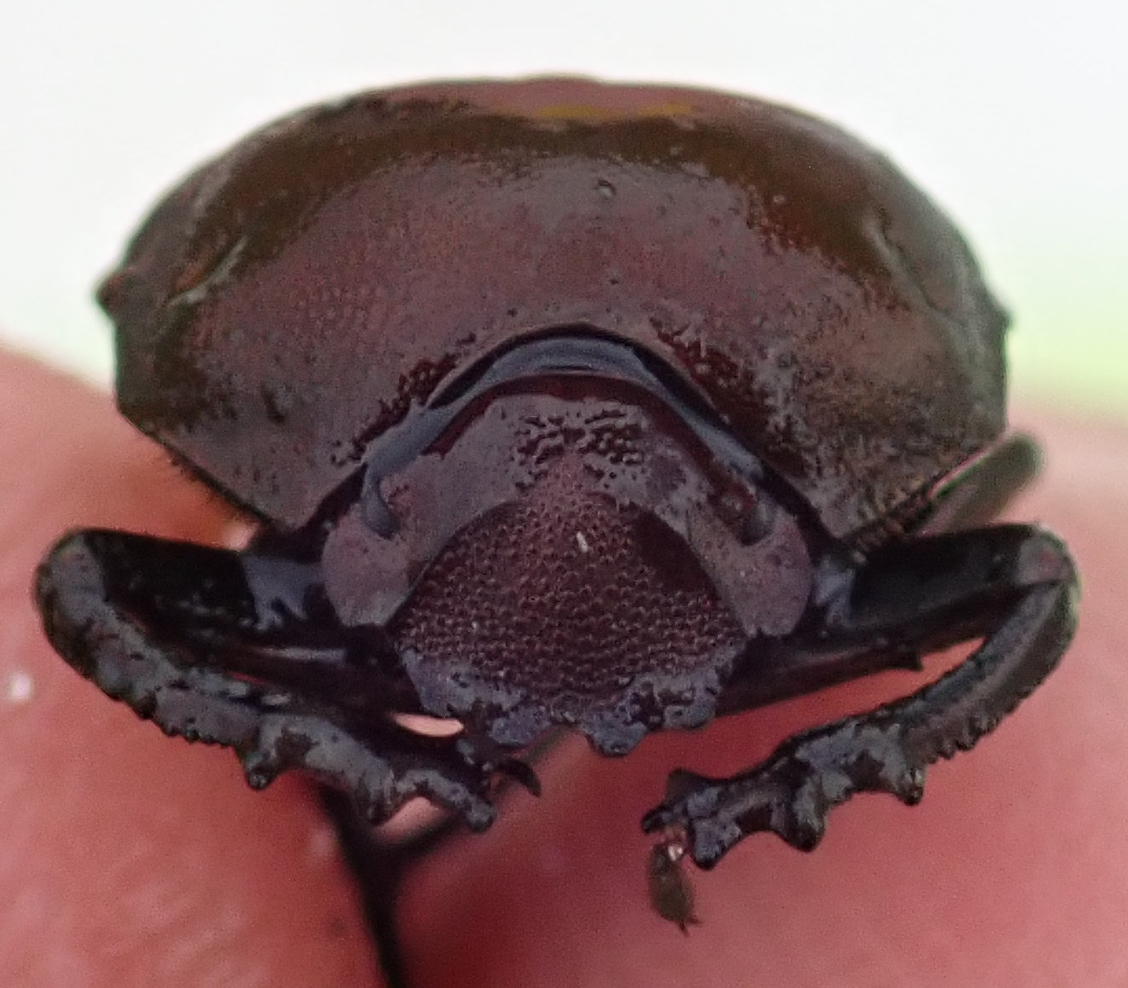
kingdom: Animalia
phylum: Arthropoda
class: Insecta
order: Coleoptera
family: Scarabaeidae
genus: Allogymnopleurus
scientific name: Allogymnopleurus splendidus
